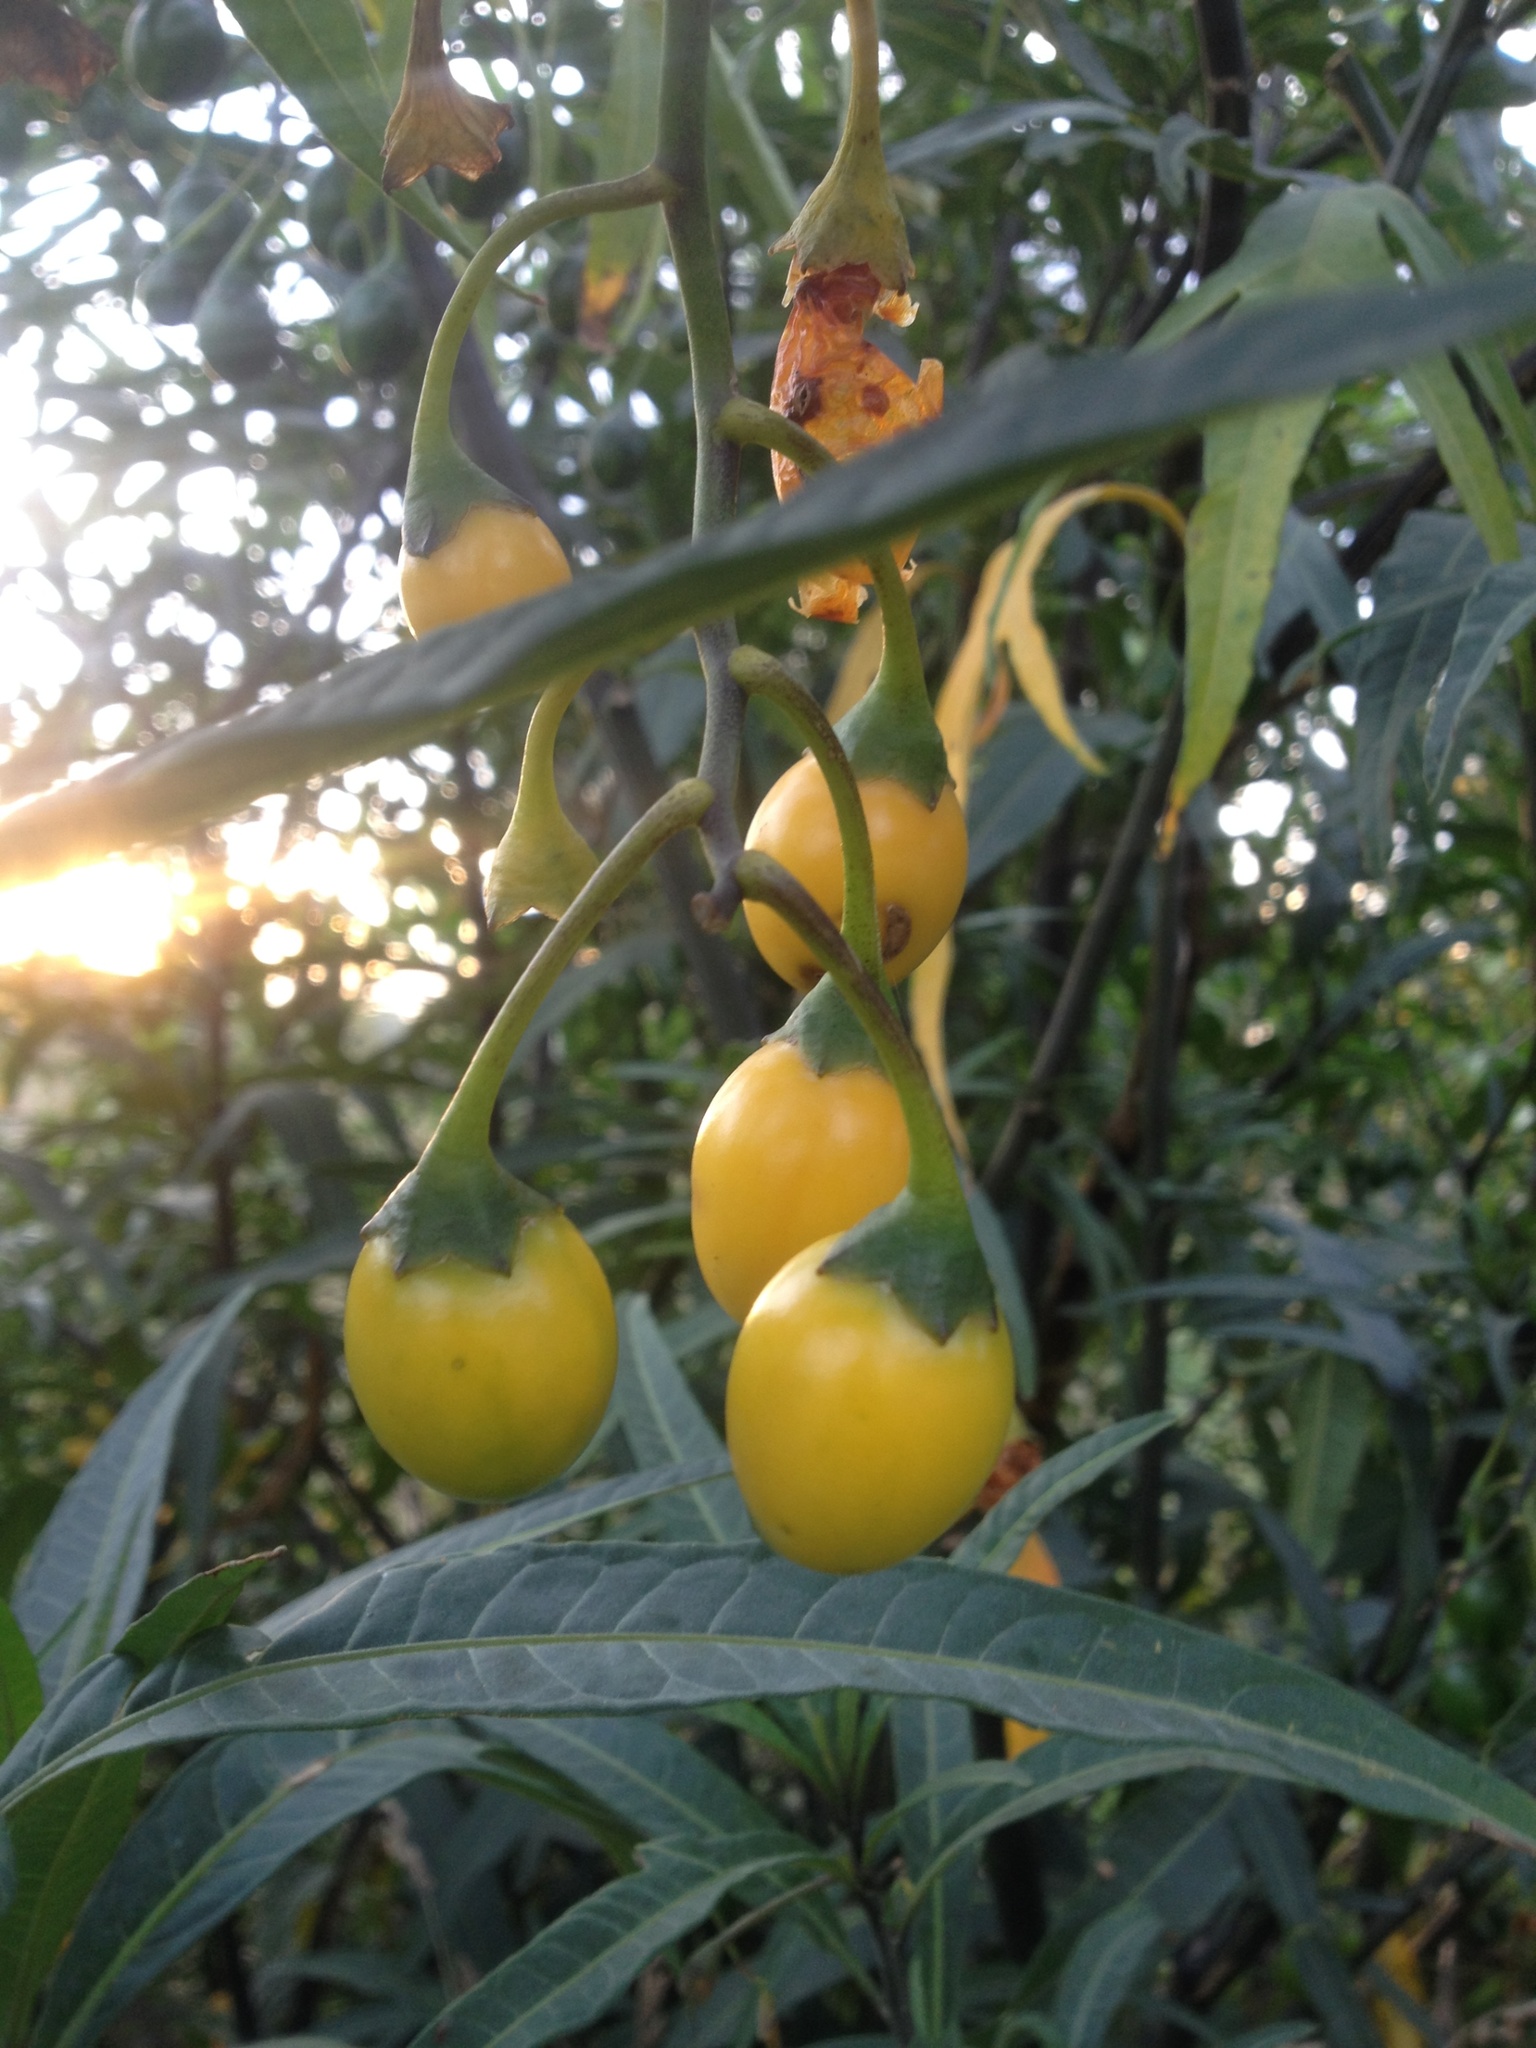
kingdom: Plantae
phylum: Tracheophyta
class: Magnoliopsida
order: Solanales
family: Solanaceae
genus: Solanum
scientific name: Solanum laciniatum
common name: Kangaroo-apple
